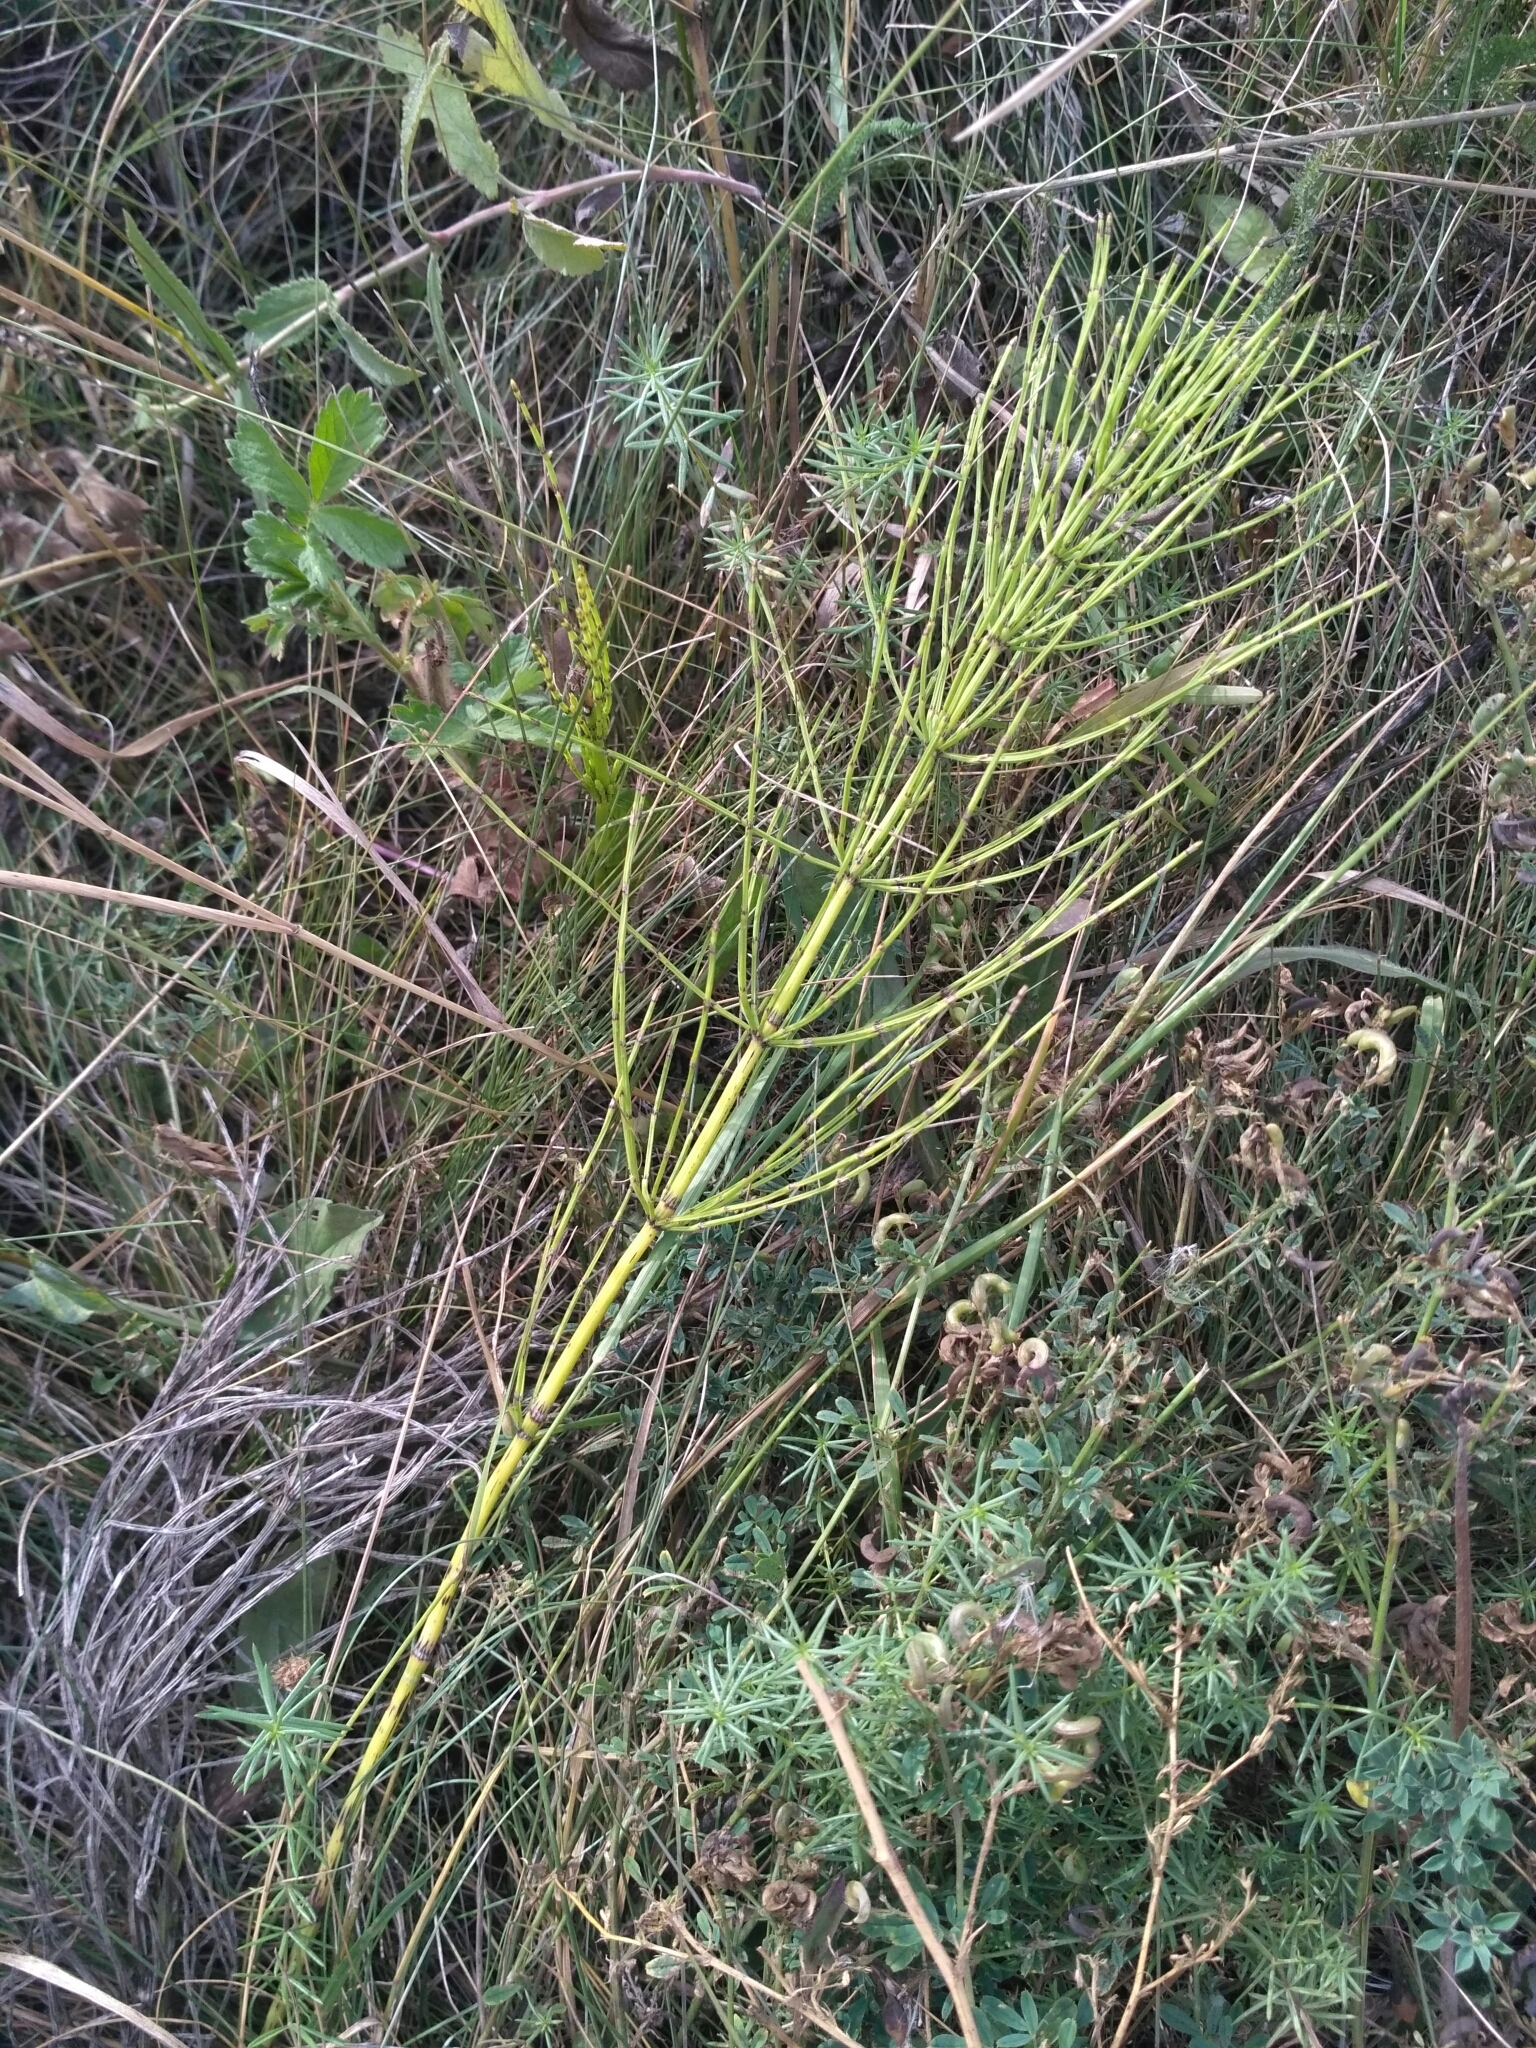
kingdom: Plantae
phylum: Tracheophyta
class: Polypodiopsida
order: Equisetales
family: Equisetaceae
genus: Equisetum
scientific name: Equisetum arvense
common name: Field horsetail
